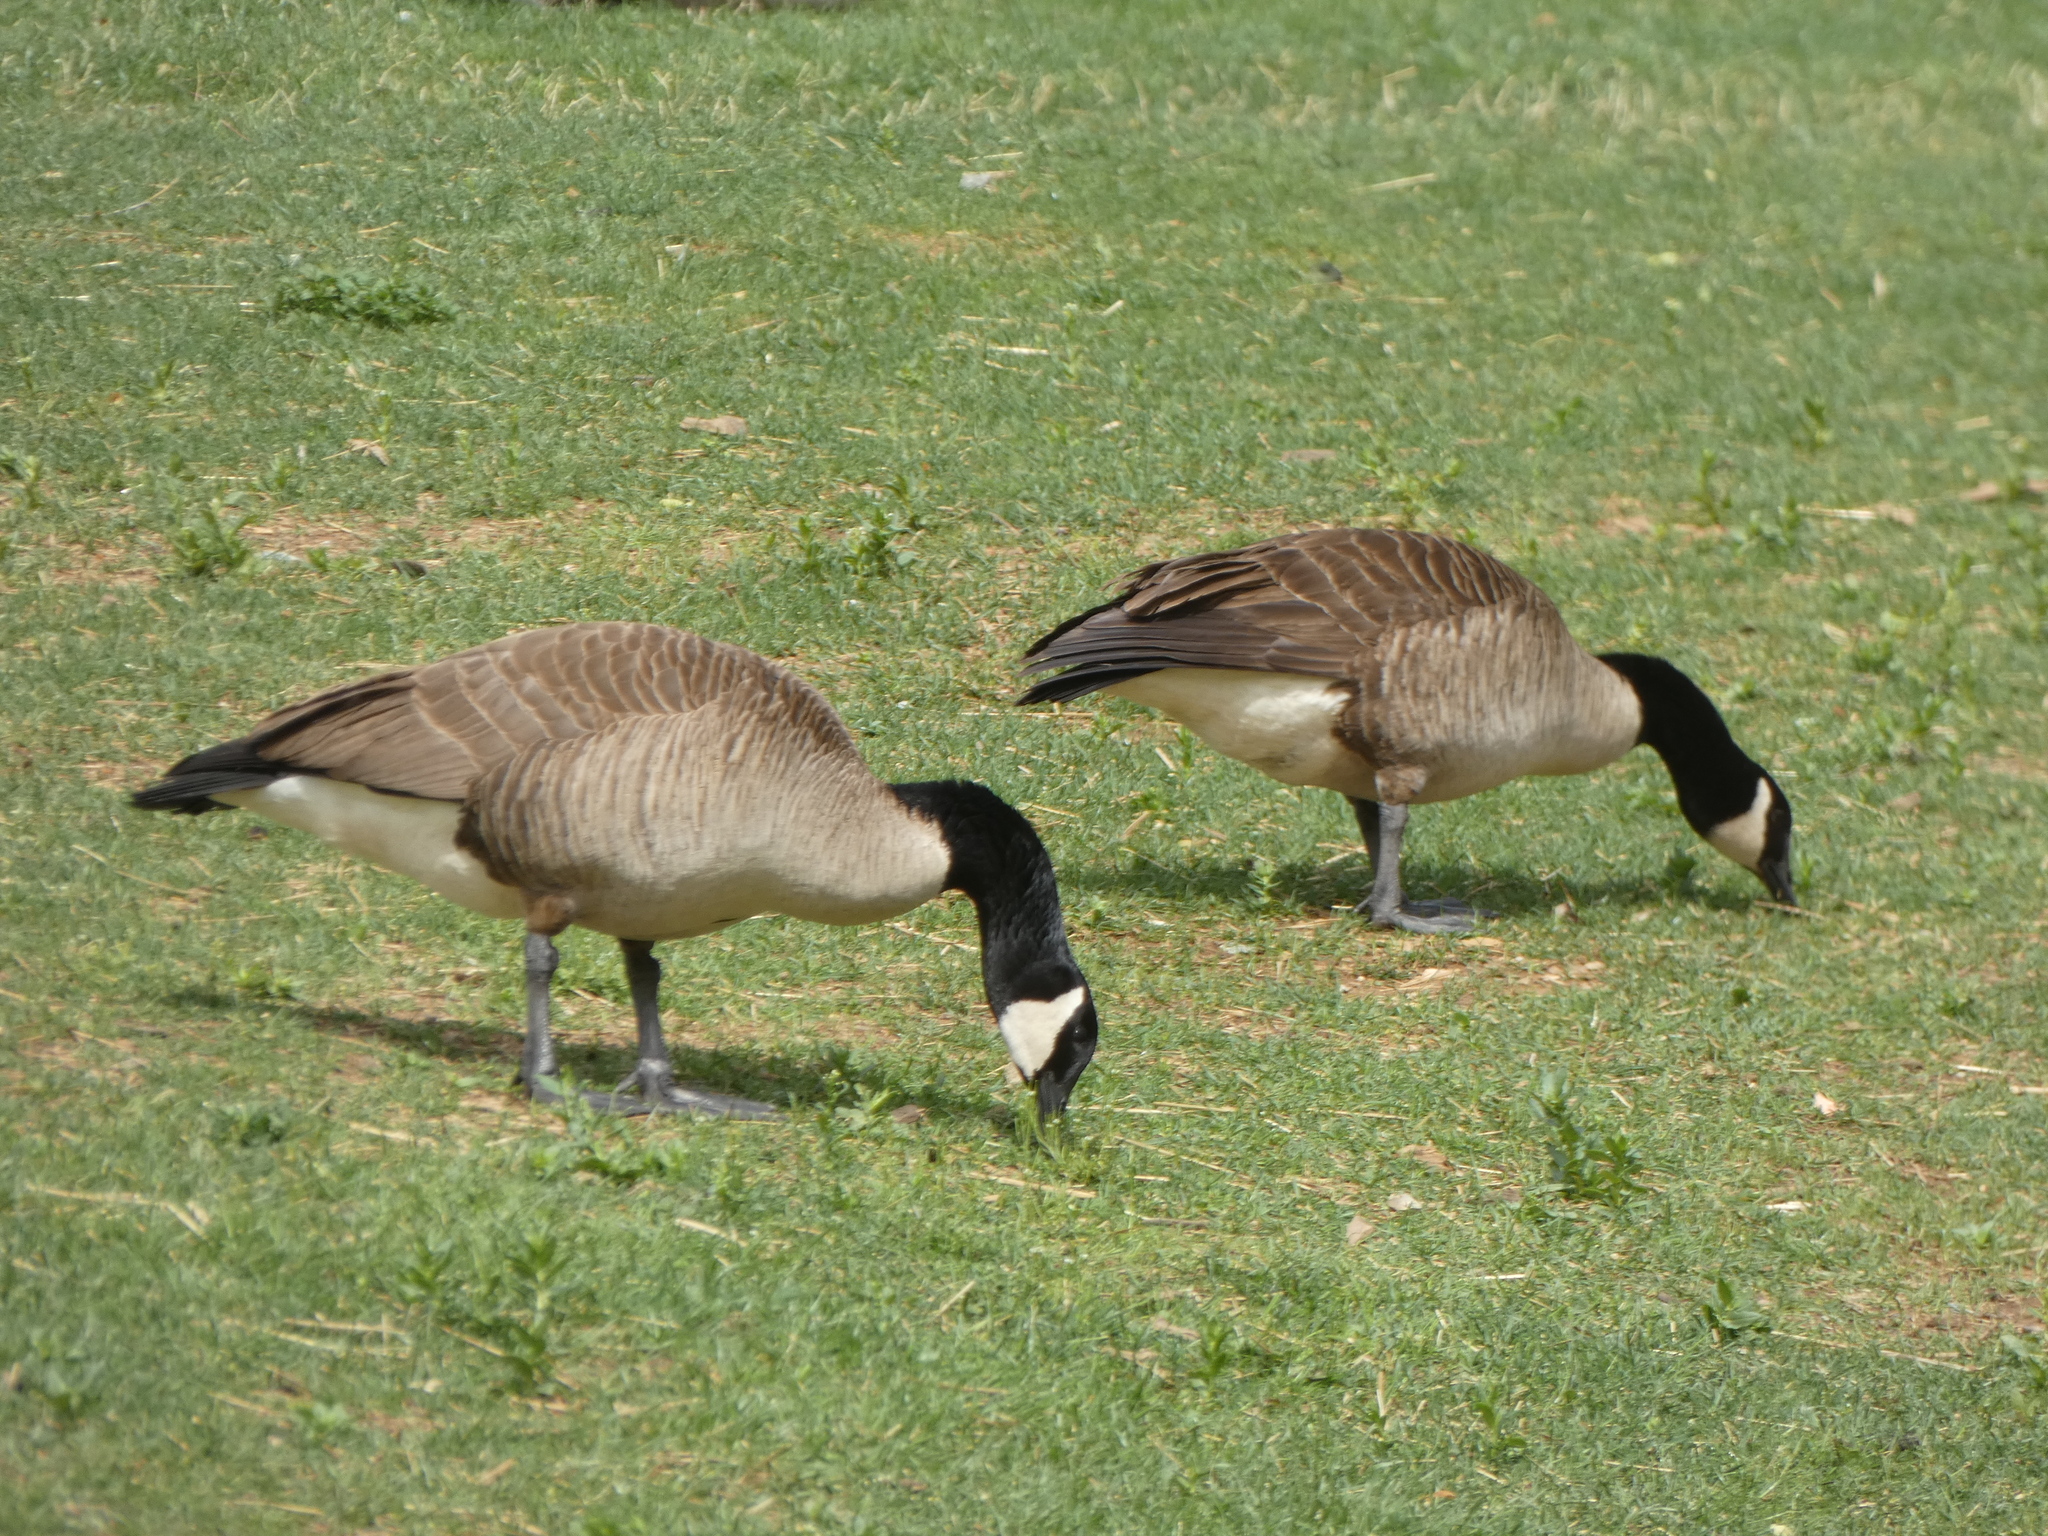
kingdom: Animalia
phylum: Chordata
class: Aves
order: Anseriformes
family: Anatidae
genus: Branta
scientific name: Branta canadensis
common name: Canada goose
